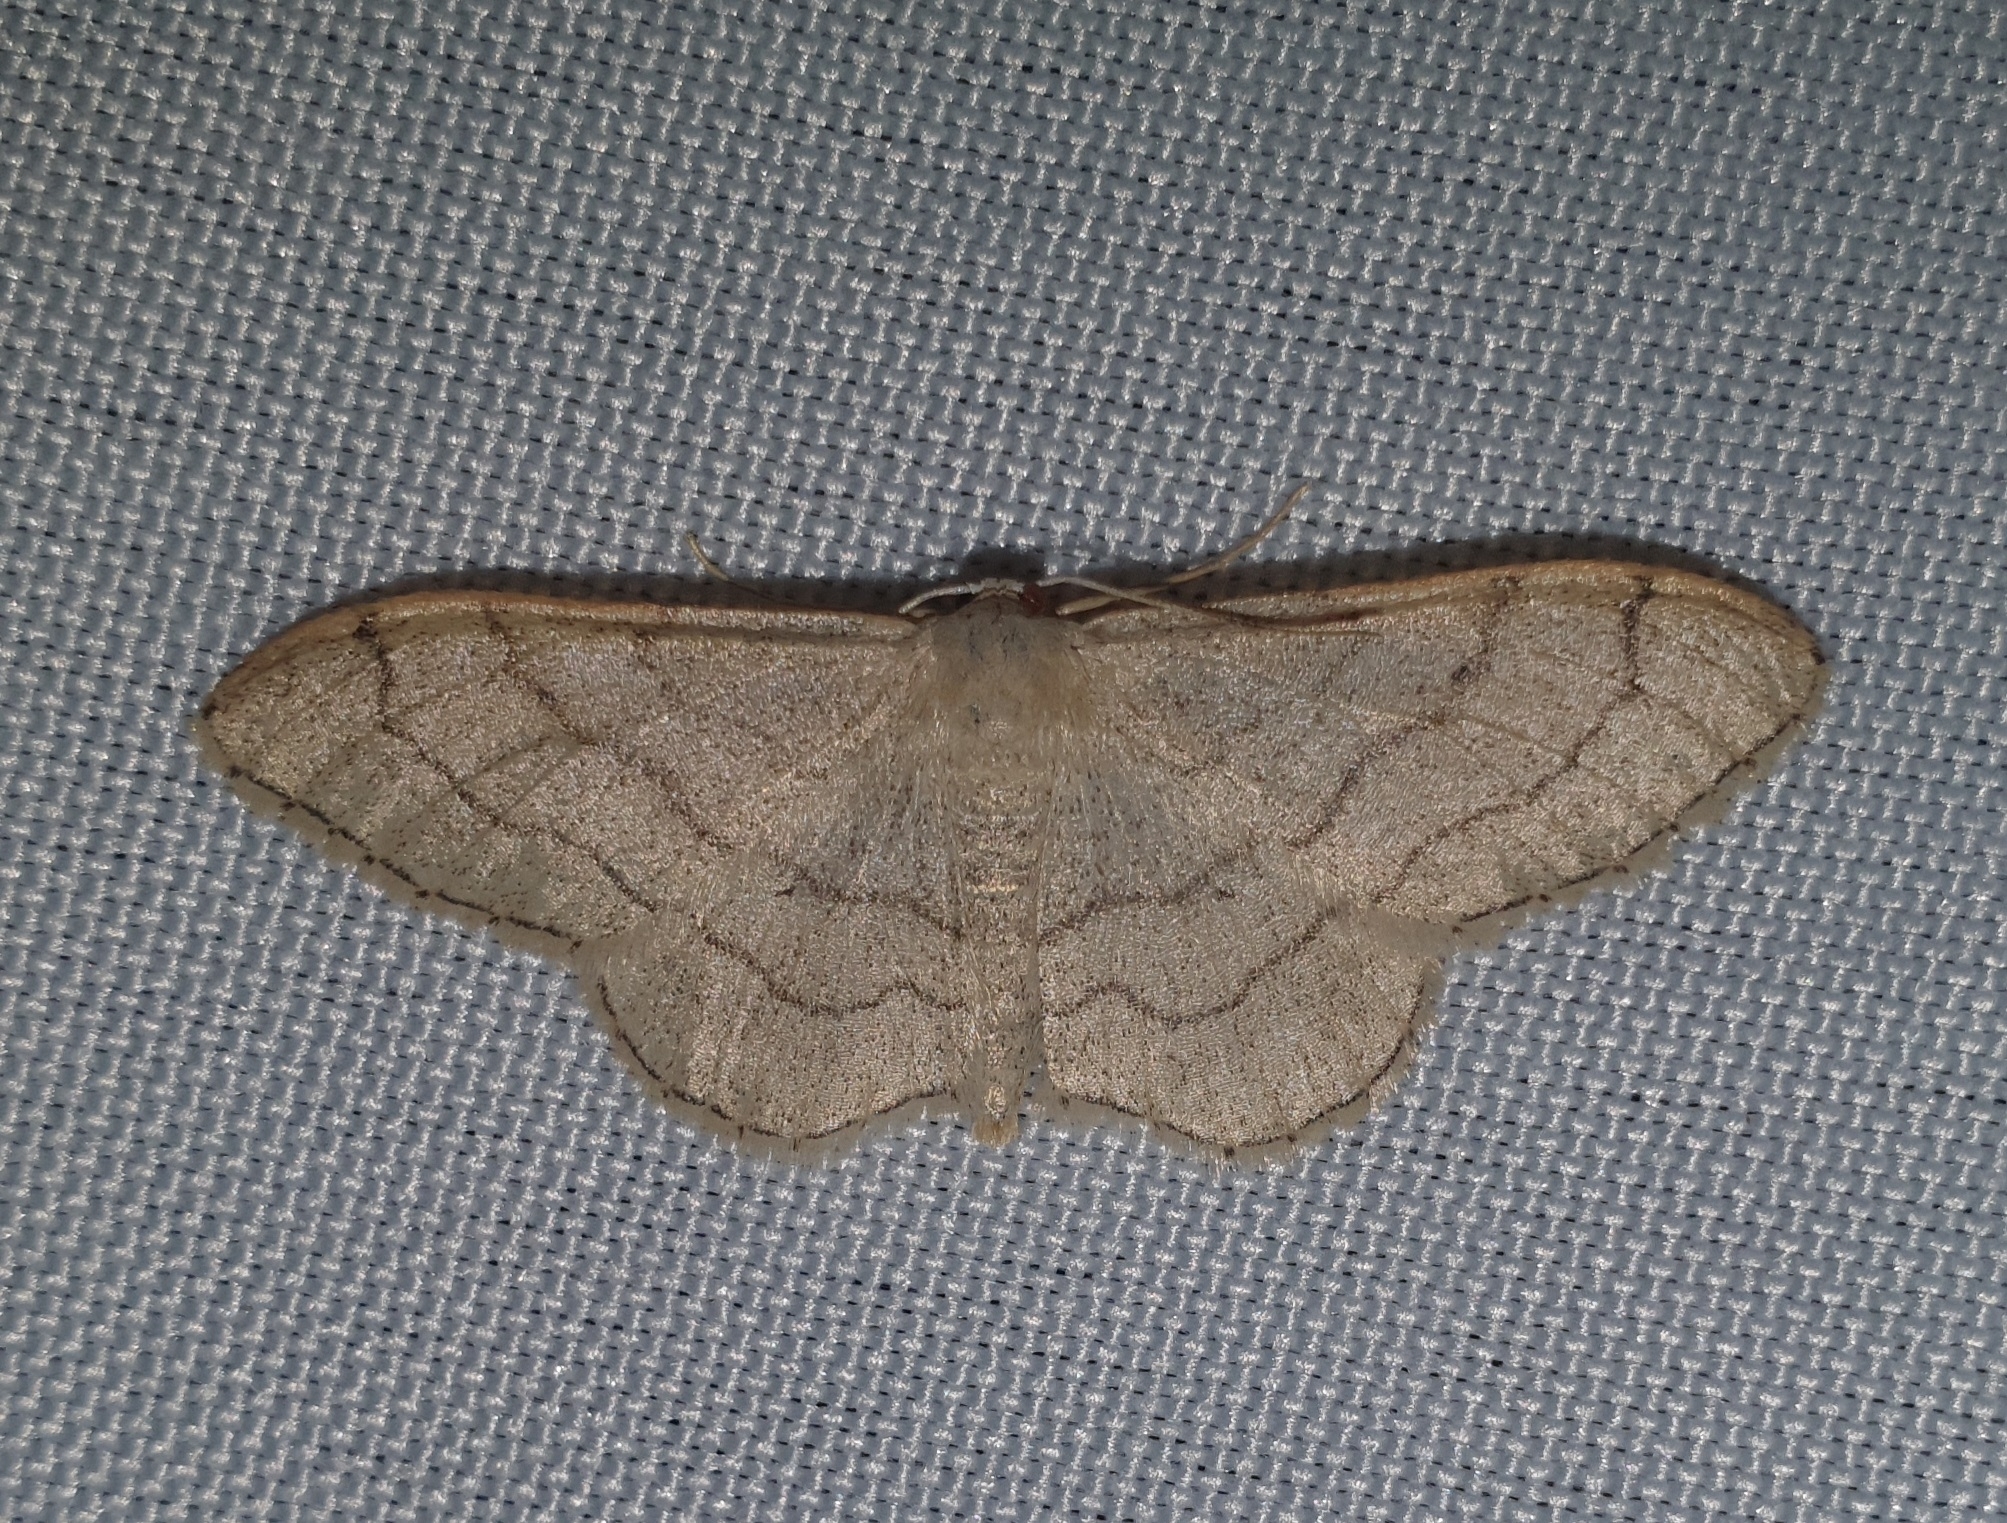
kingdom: Animalia
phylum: Arthropoda
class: Insecta
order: Lepidoptera
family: Geometridae
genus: Idaea
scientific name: Idaea aversata
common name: Riband wave
